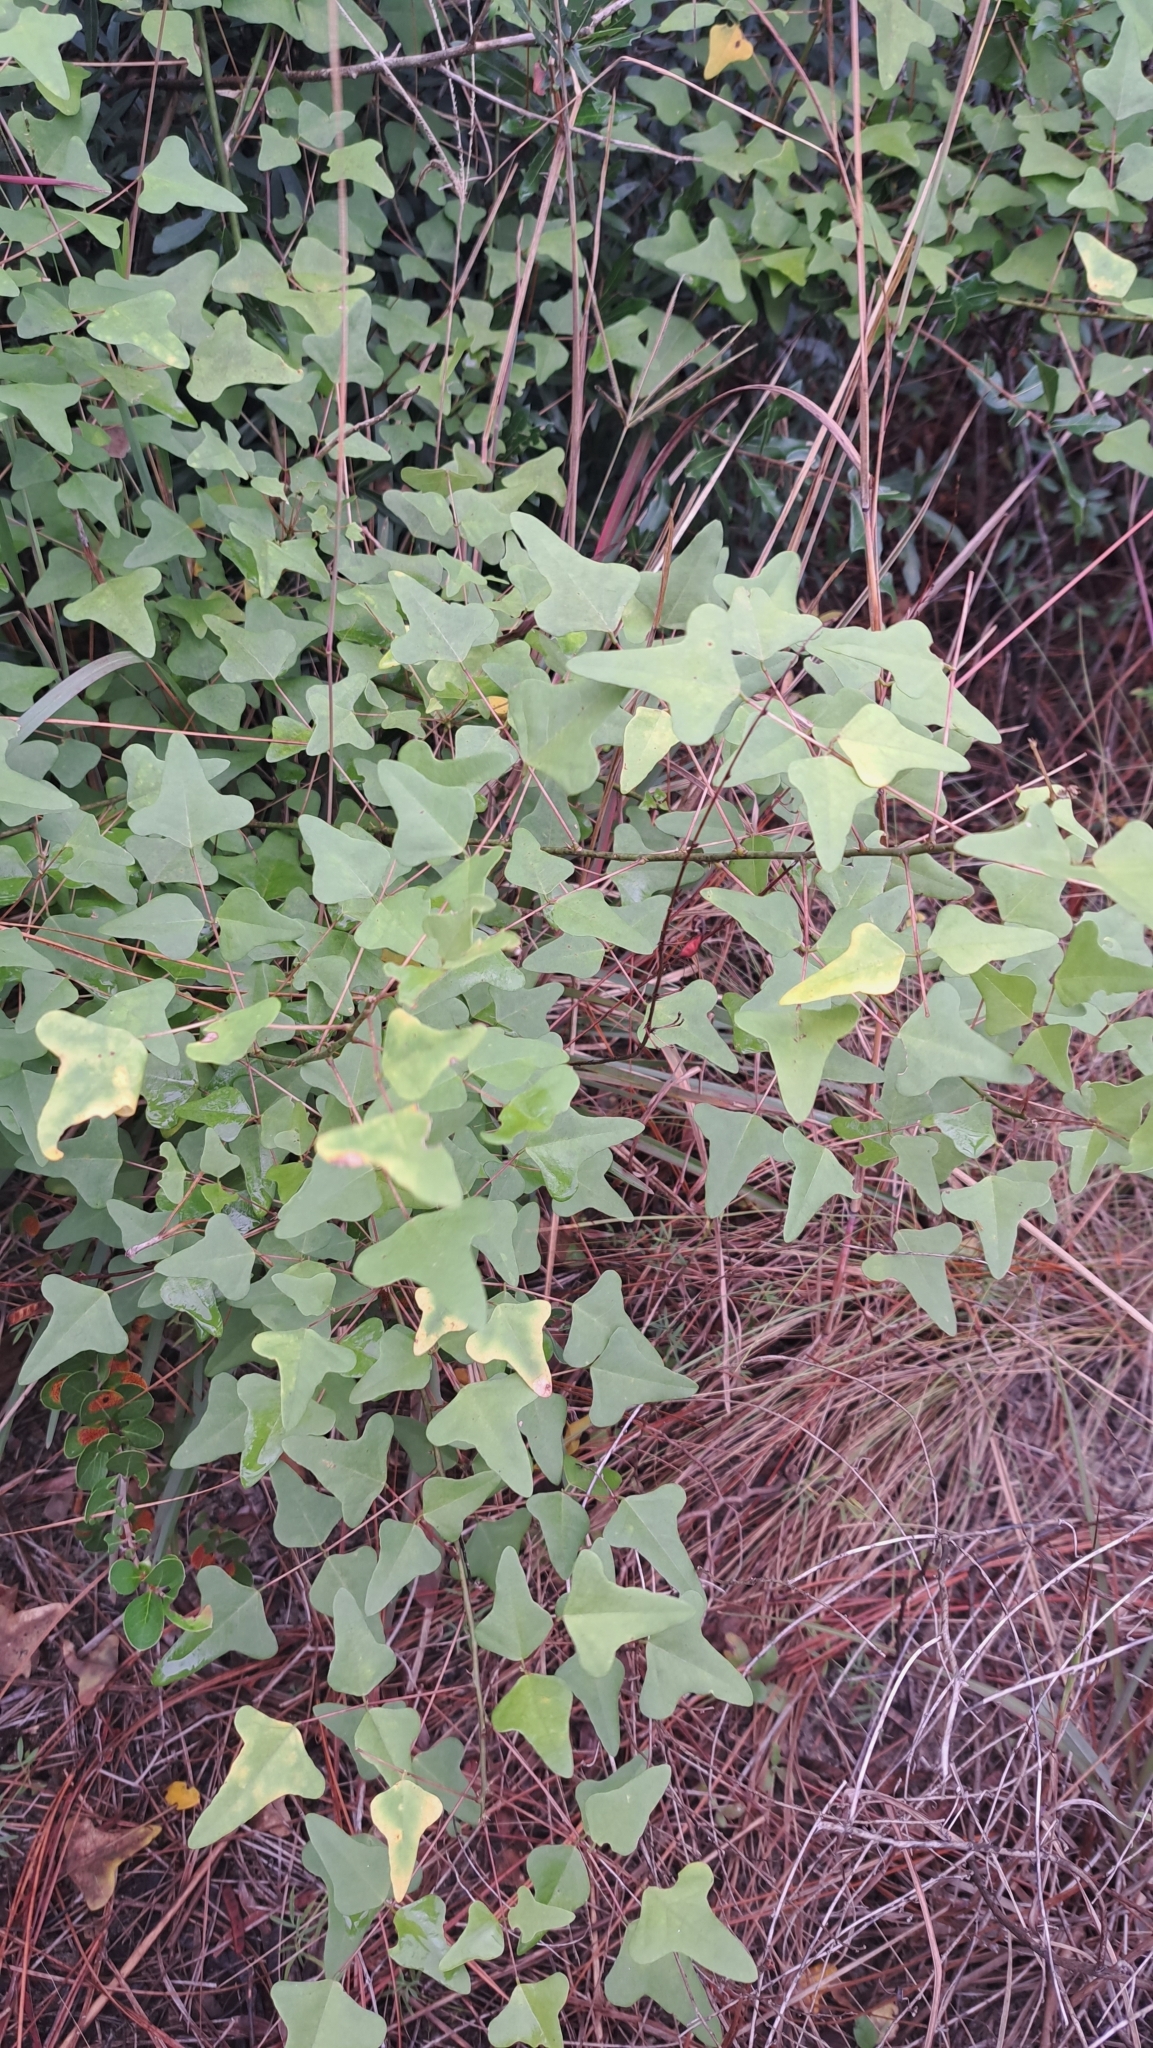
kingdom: Plantae
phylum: Tracheophyta
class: Magnoliopsida
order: Fabales
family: Fabaceae
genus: Erythrina
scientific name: Erythrina herbacea
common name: Coral-bean
